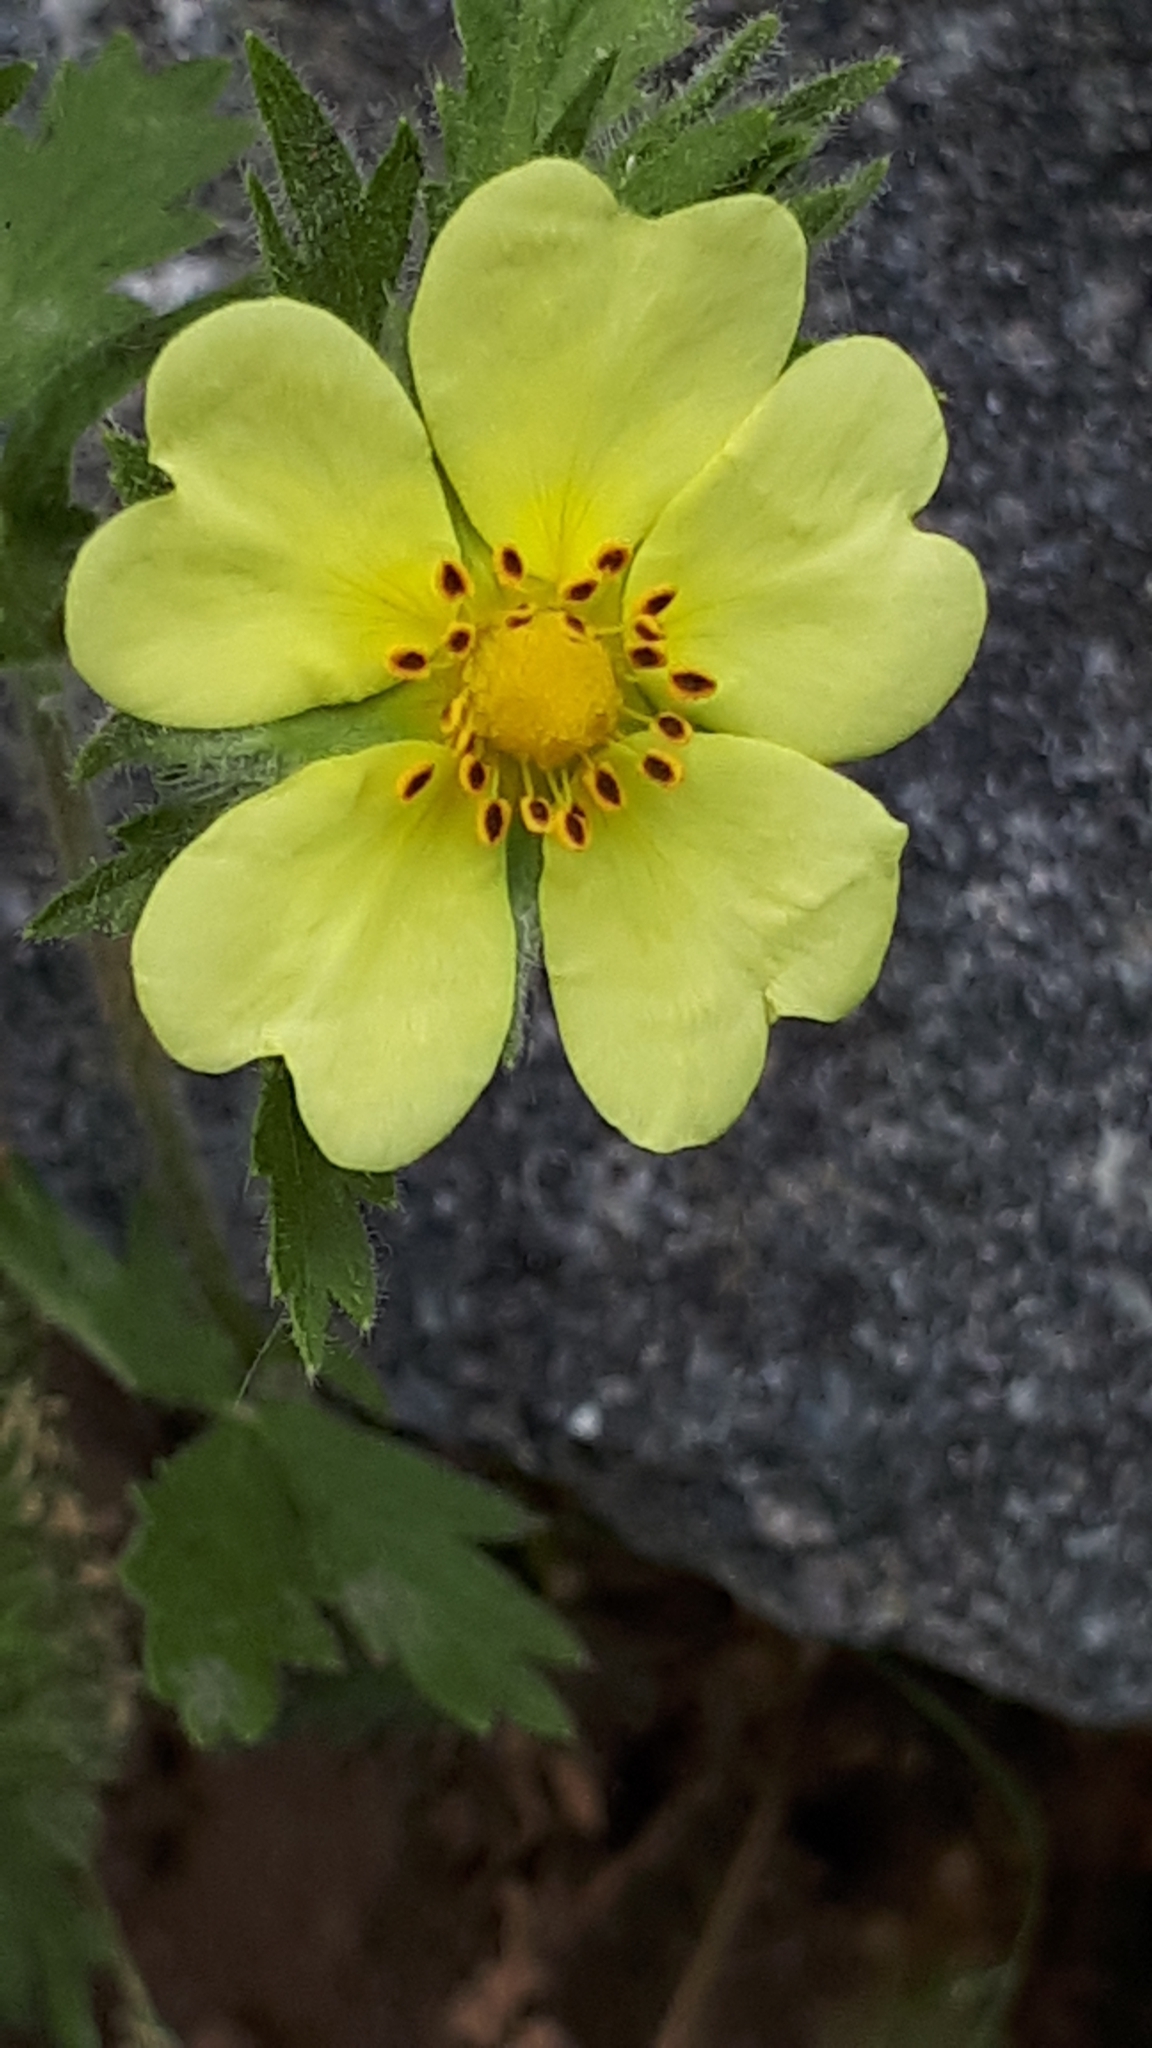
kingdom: Plantae
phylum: Tracheophyta
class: Magnoliopsida
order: Rosales
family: Rosaceae
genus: Potentilla
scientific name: Potentilla recta
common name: Sulphur cinquefoil
